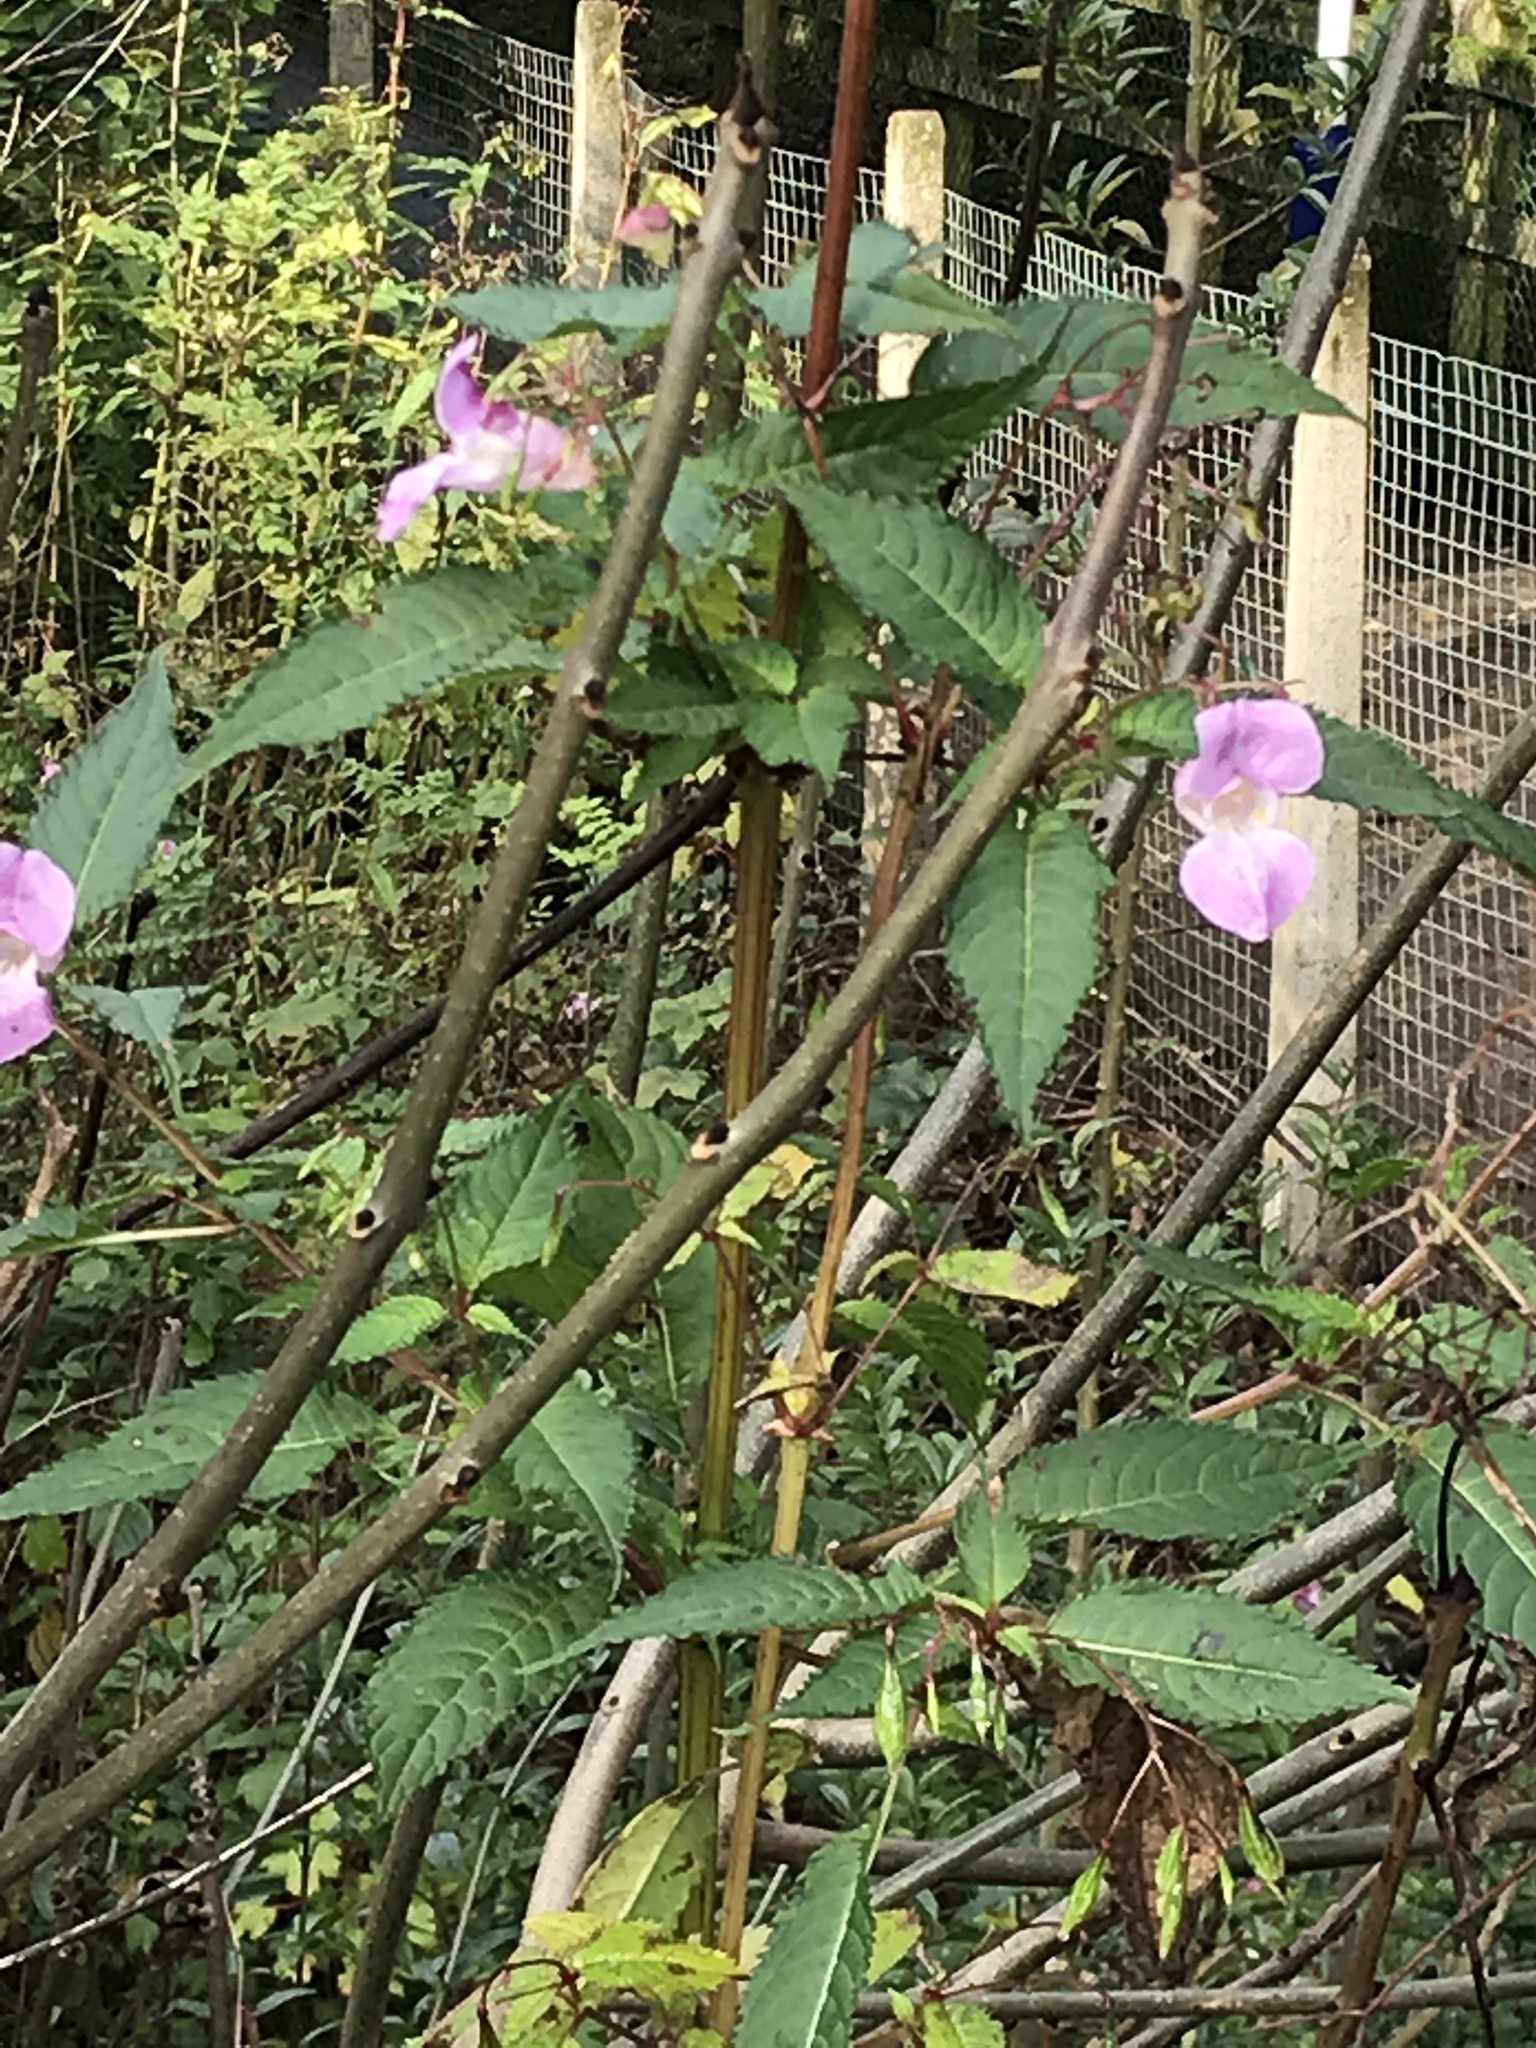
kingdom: Plantae
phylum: Tracheophyta
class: Magnoliopsida
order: Ericales
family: Balsaminaceae
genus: Impatiens
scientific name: Impatiens glandulifera
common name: Himalayan balsam
